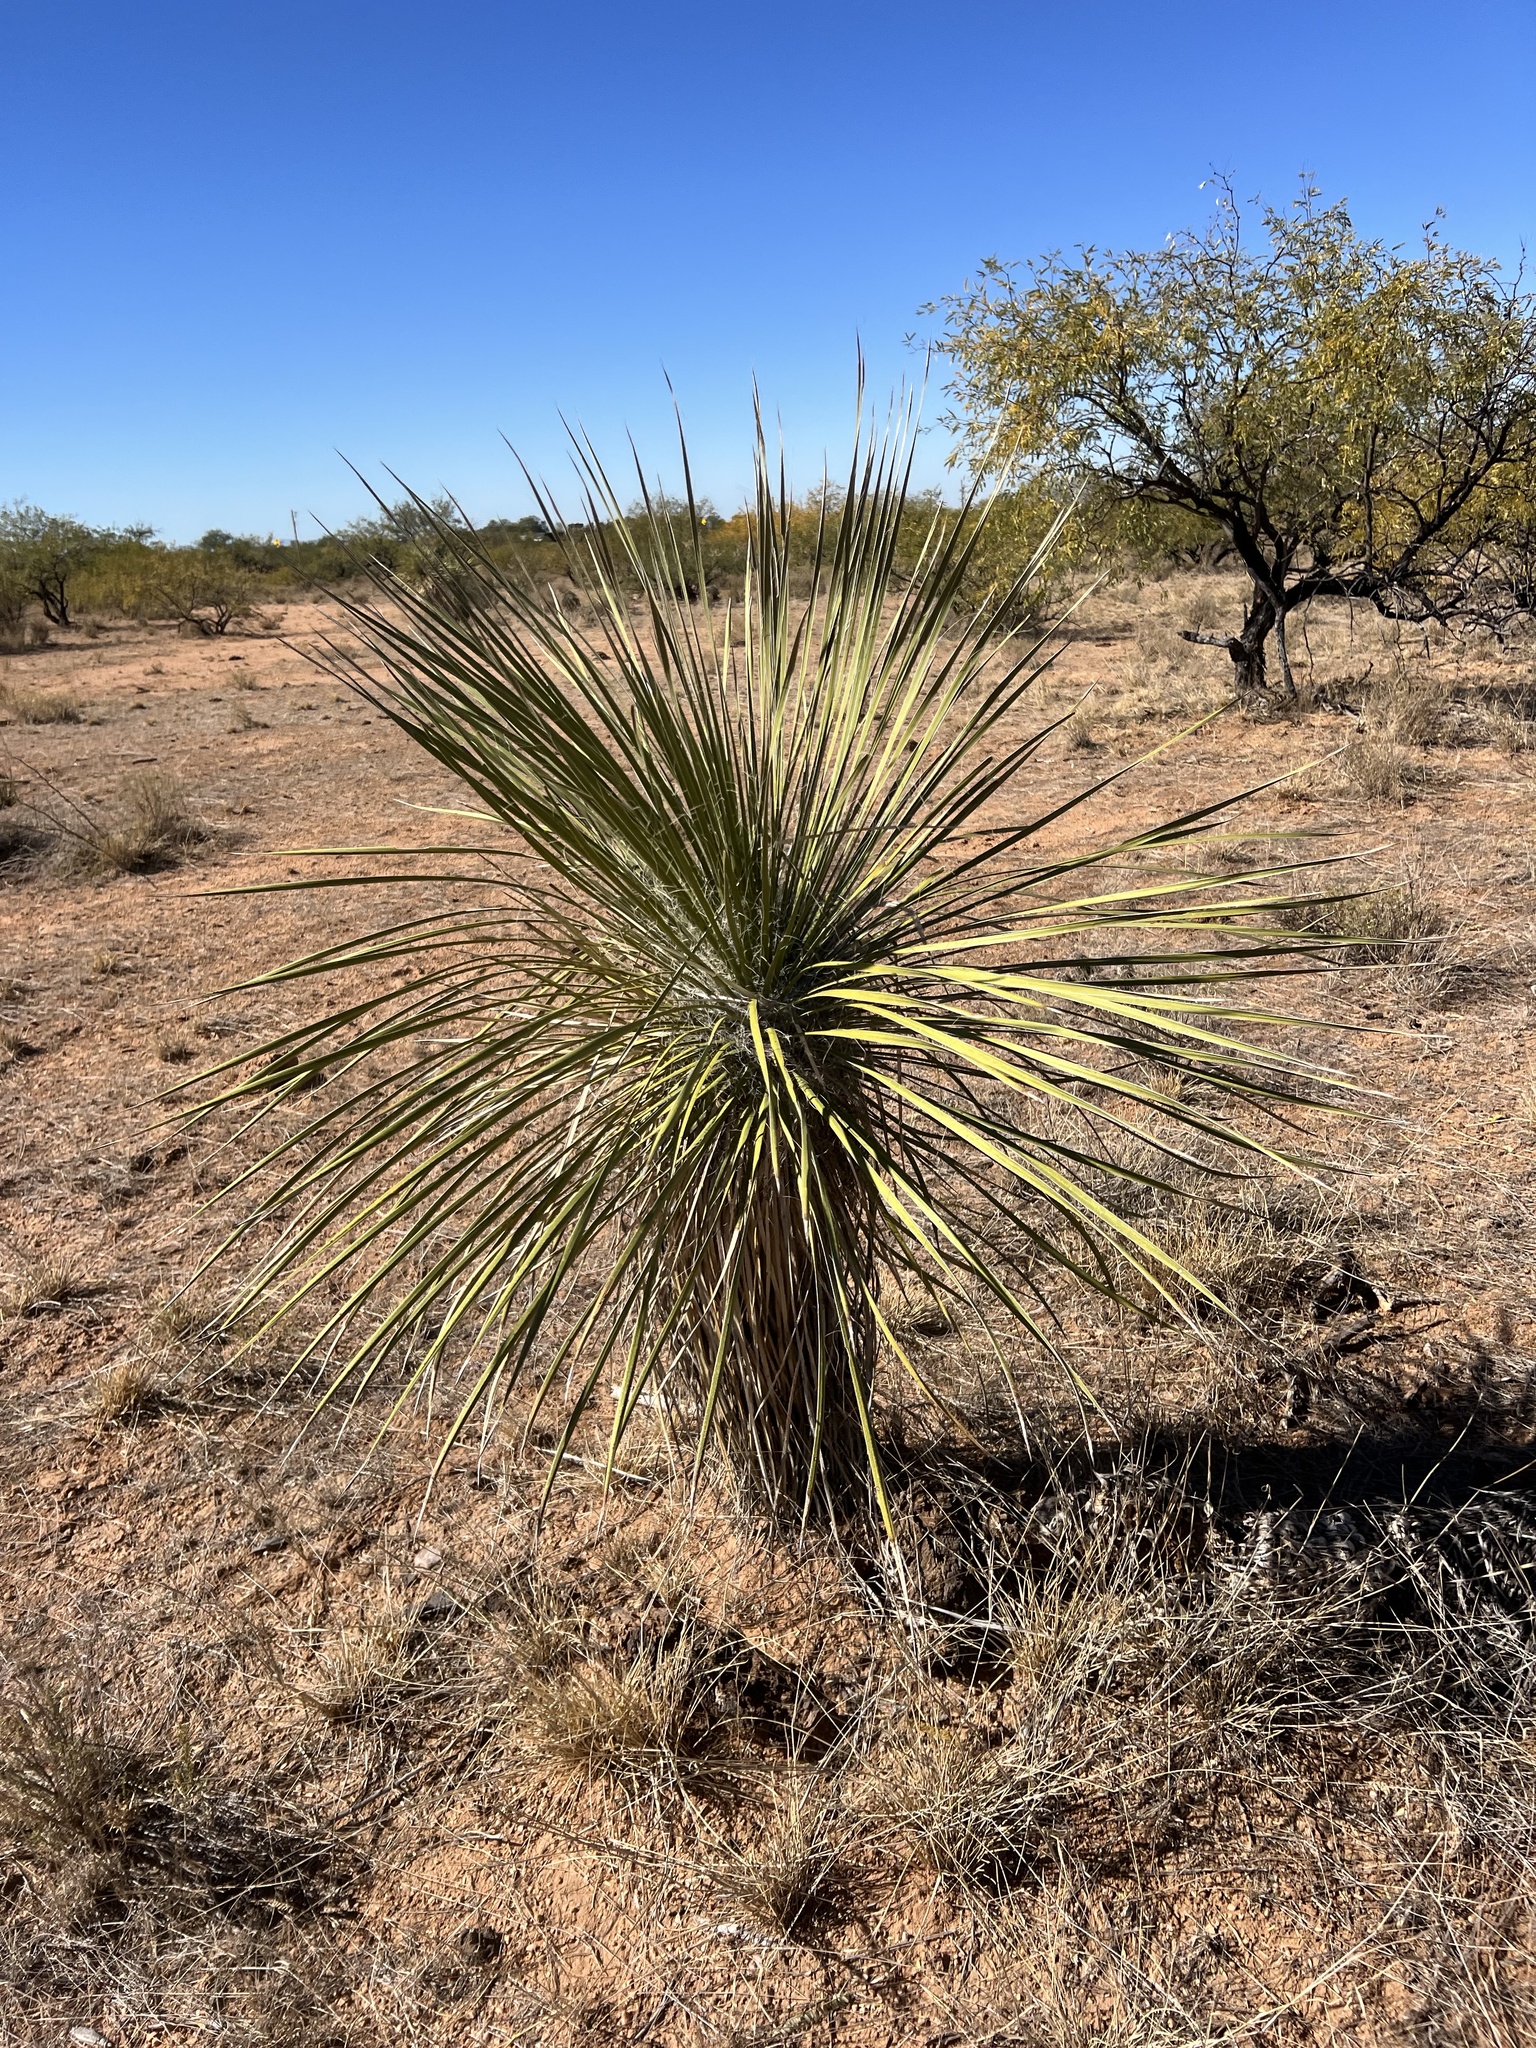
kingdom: Plantae
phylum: Tracheophyta
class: Liliopsida
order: Asparagales
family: Asparagaceae
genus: Yucca
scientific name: Yucca elata
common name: Palmella
